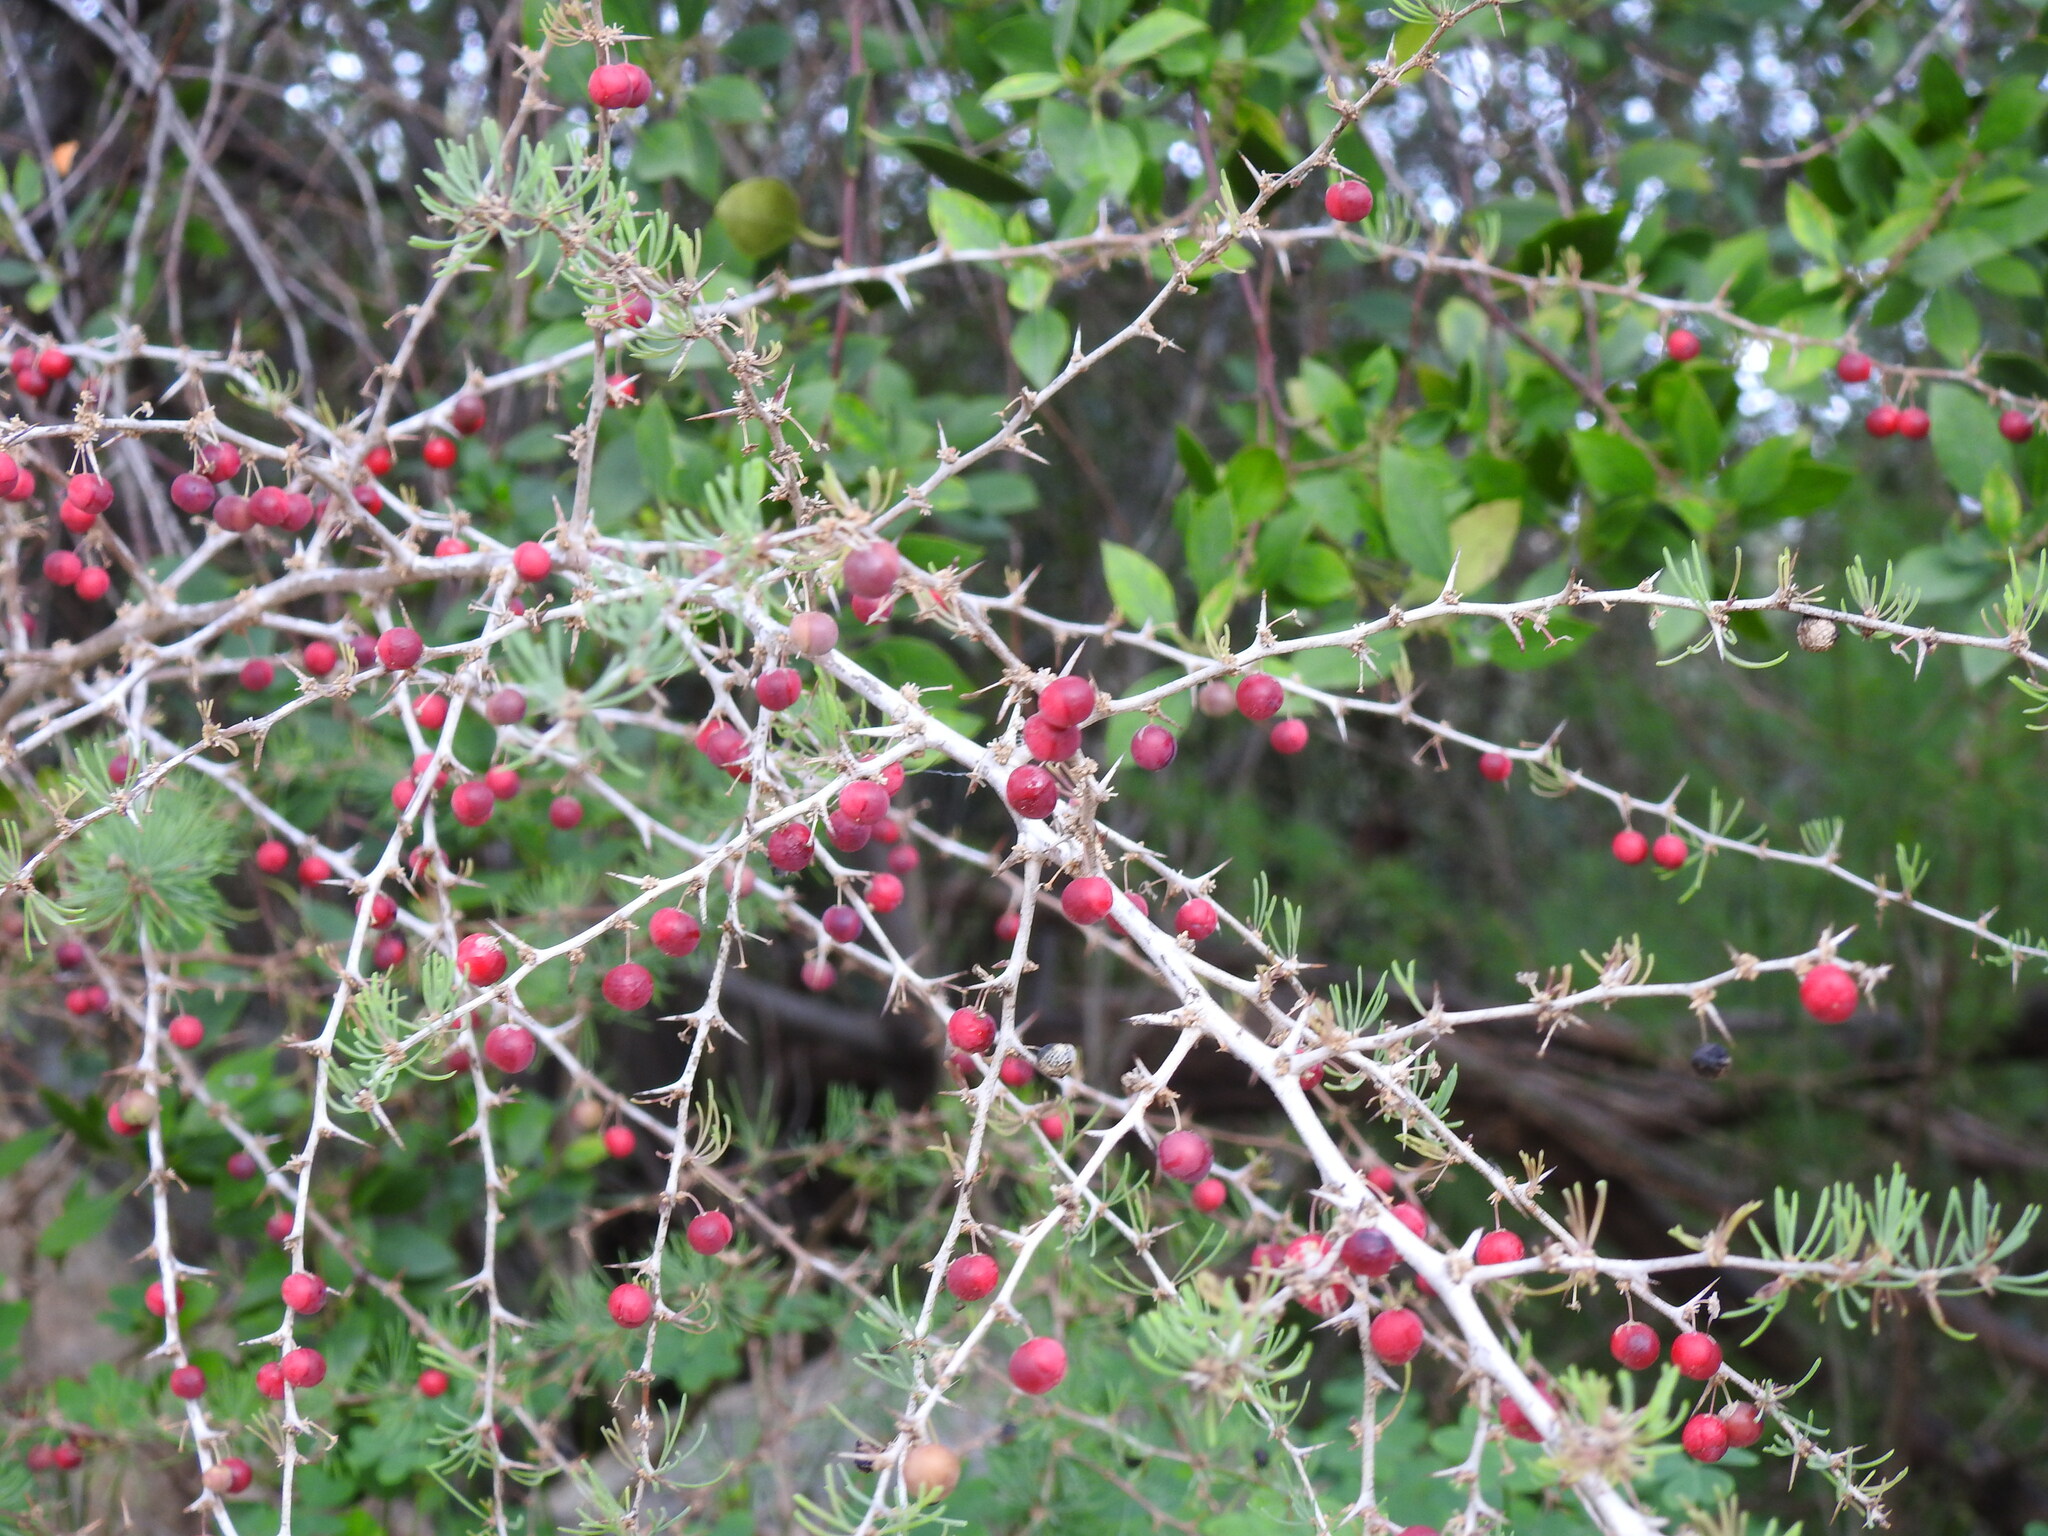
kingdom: Plantae
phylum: Tracheophyta
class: Liliopsida
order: Asparagales
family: Asparagaceae
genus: Asparagus
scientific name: Asparagus albus
